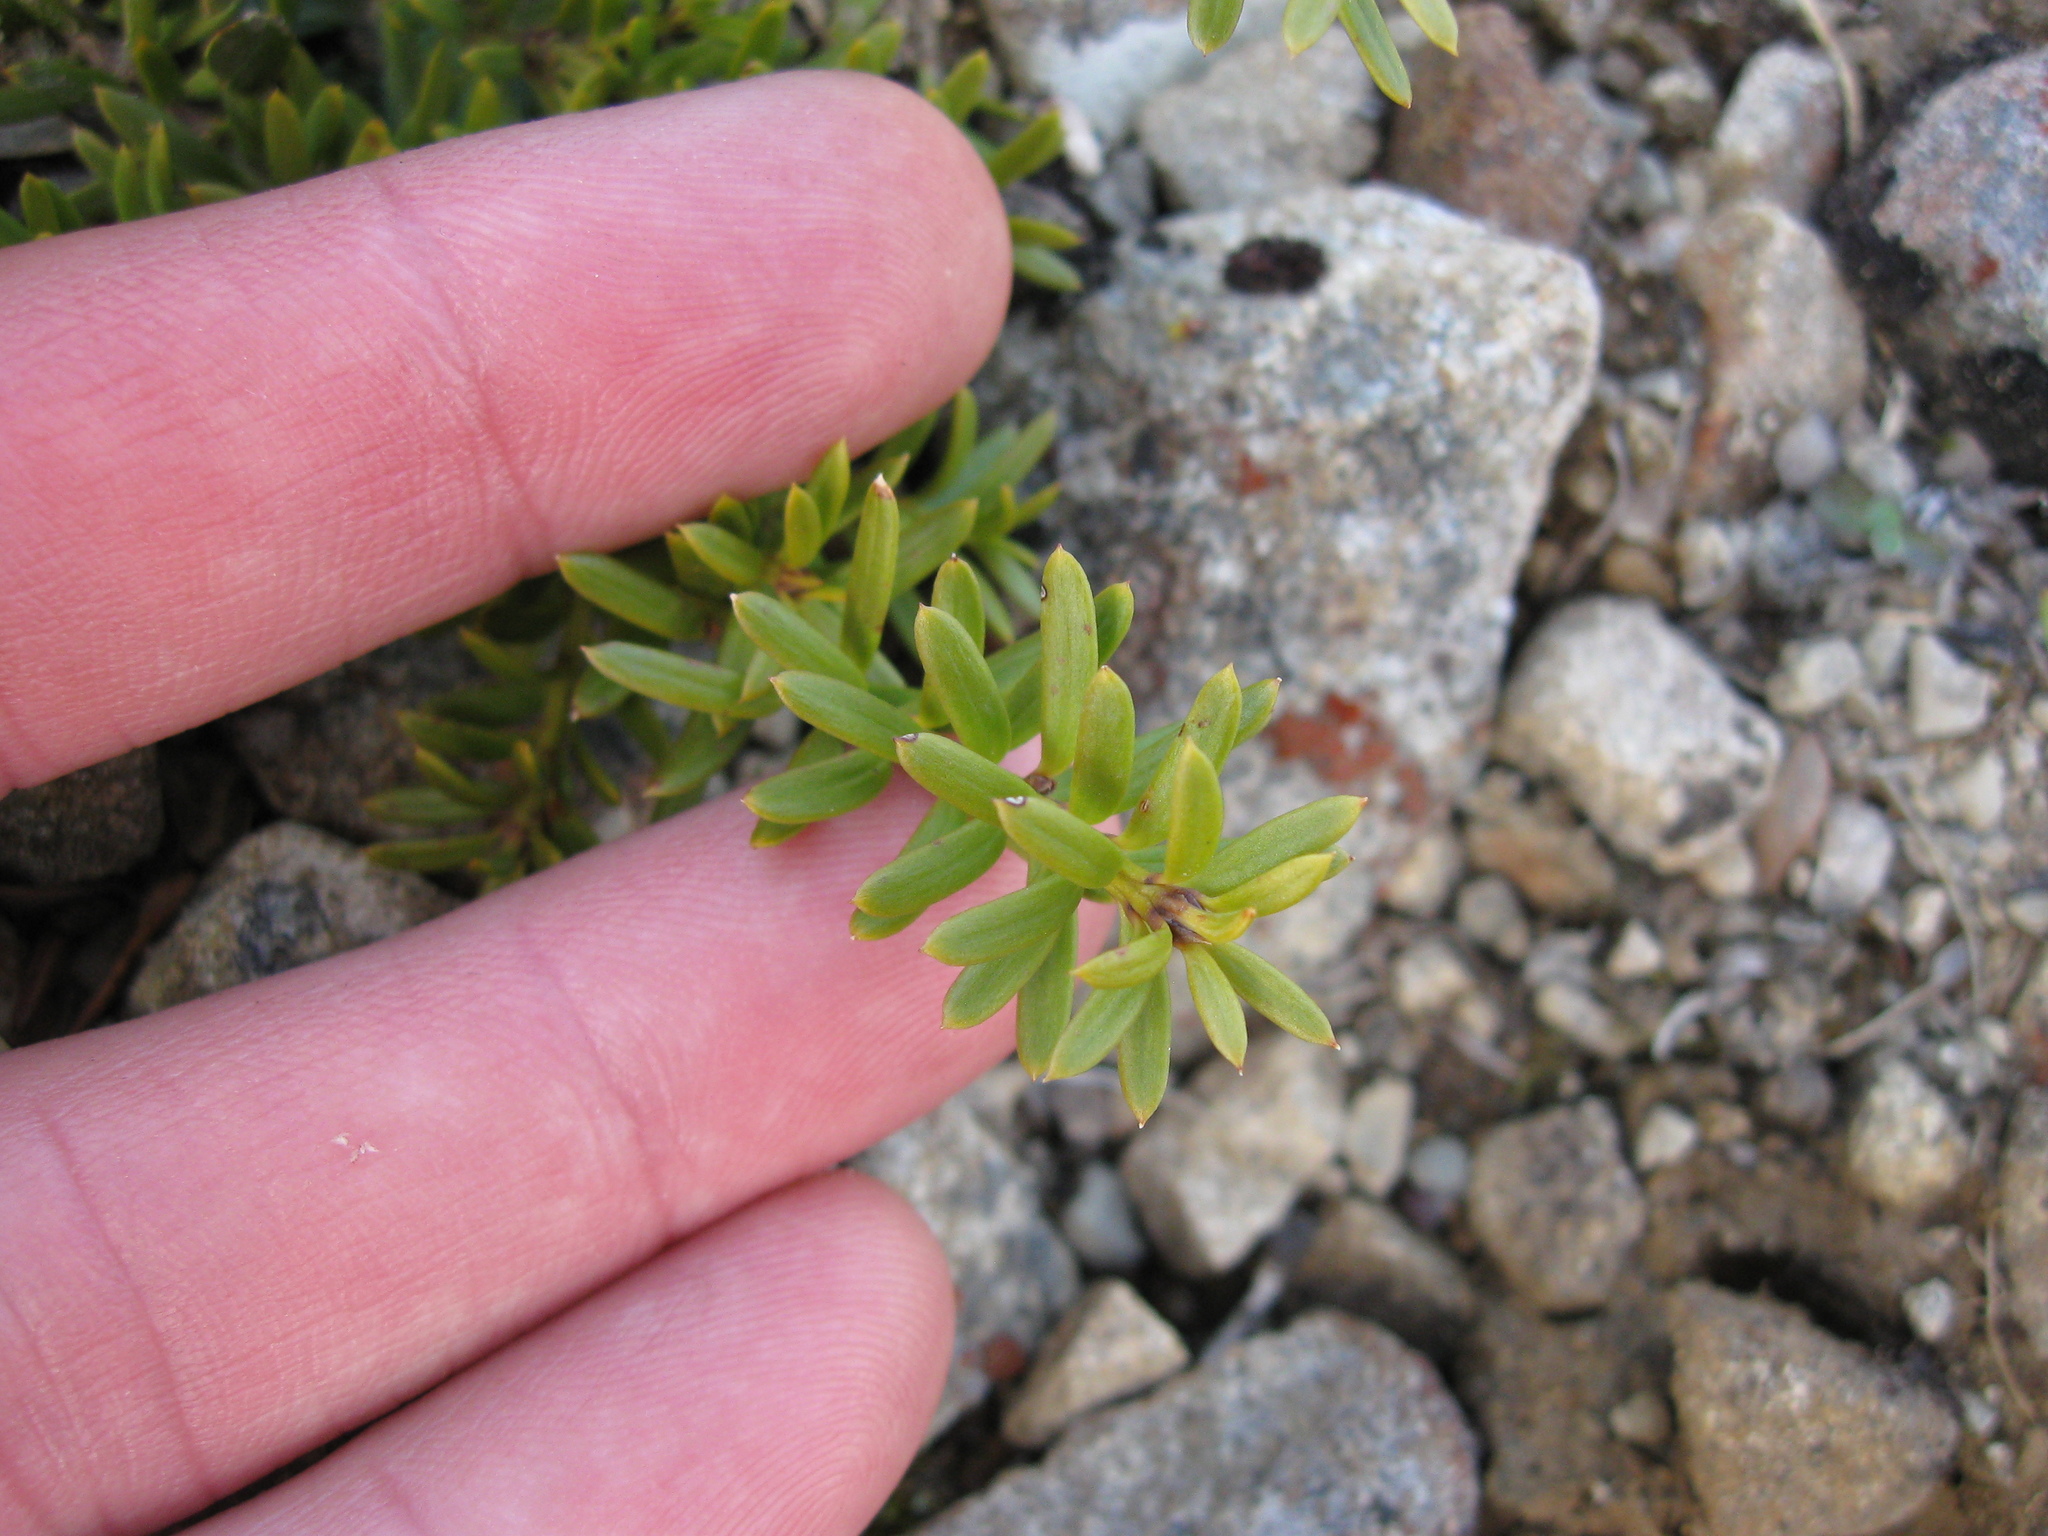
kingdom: Plantae
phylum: Tracheophyta
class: Pinopsida
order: Pinales
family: Podocarpaceae
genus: Podocarpus
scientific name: Podocarpus nivalis
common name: Alpine totara
